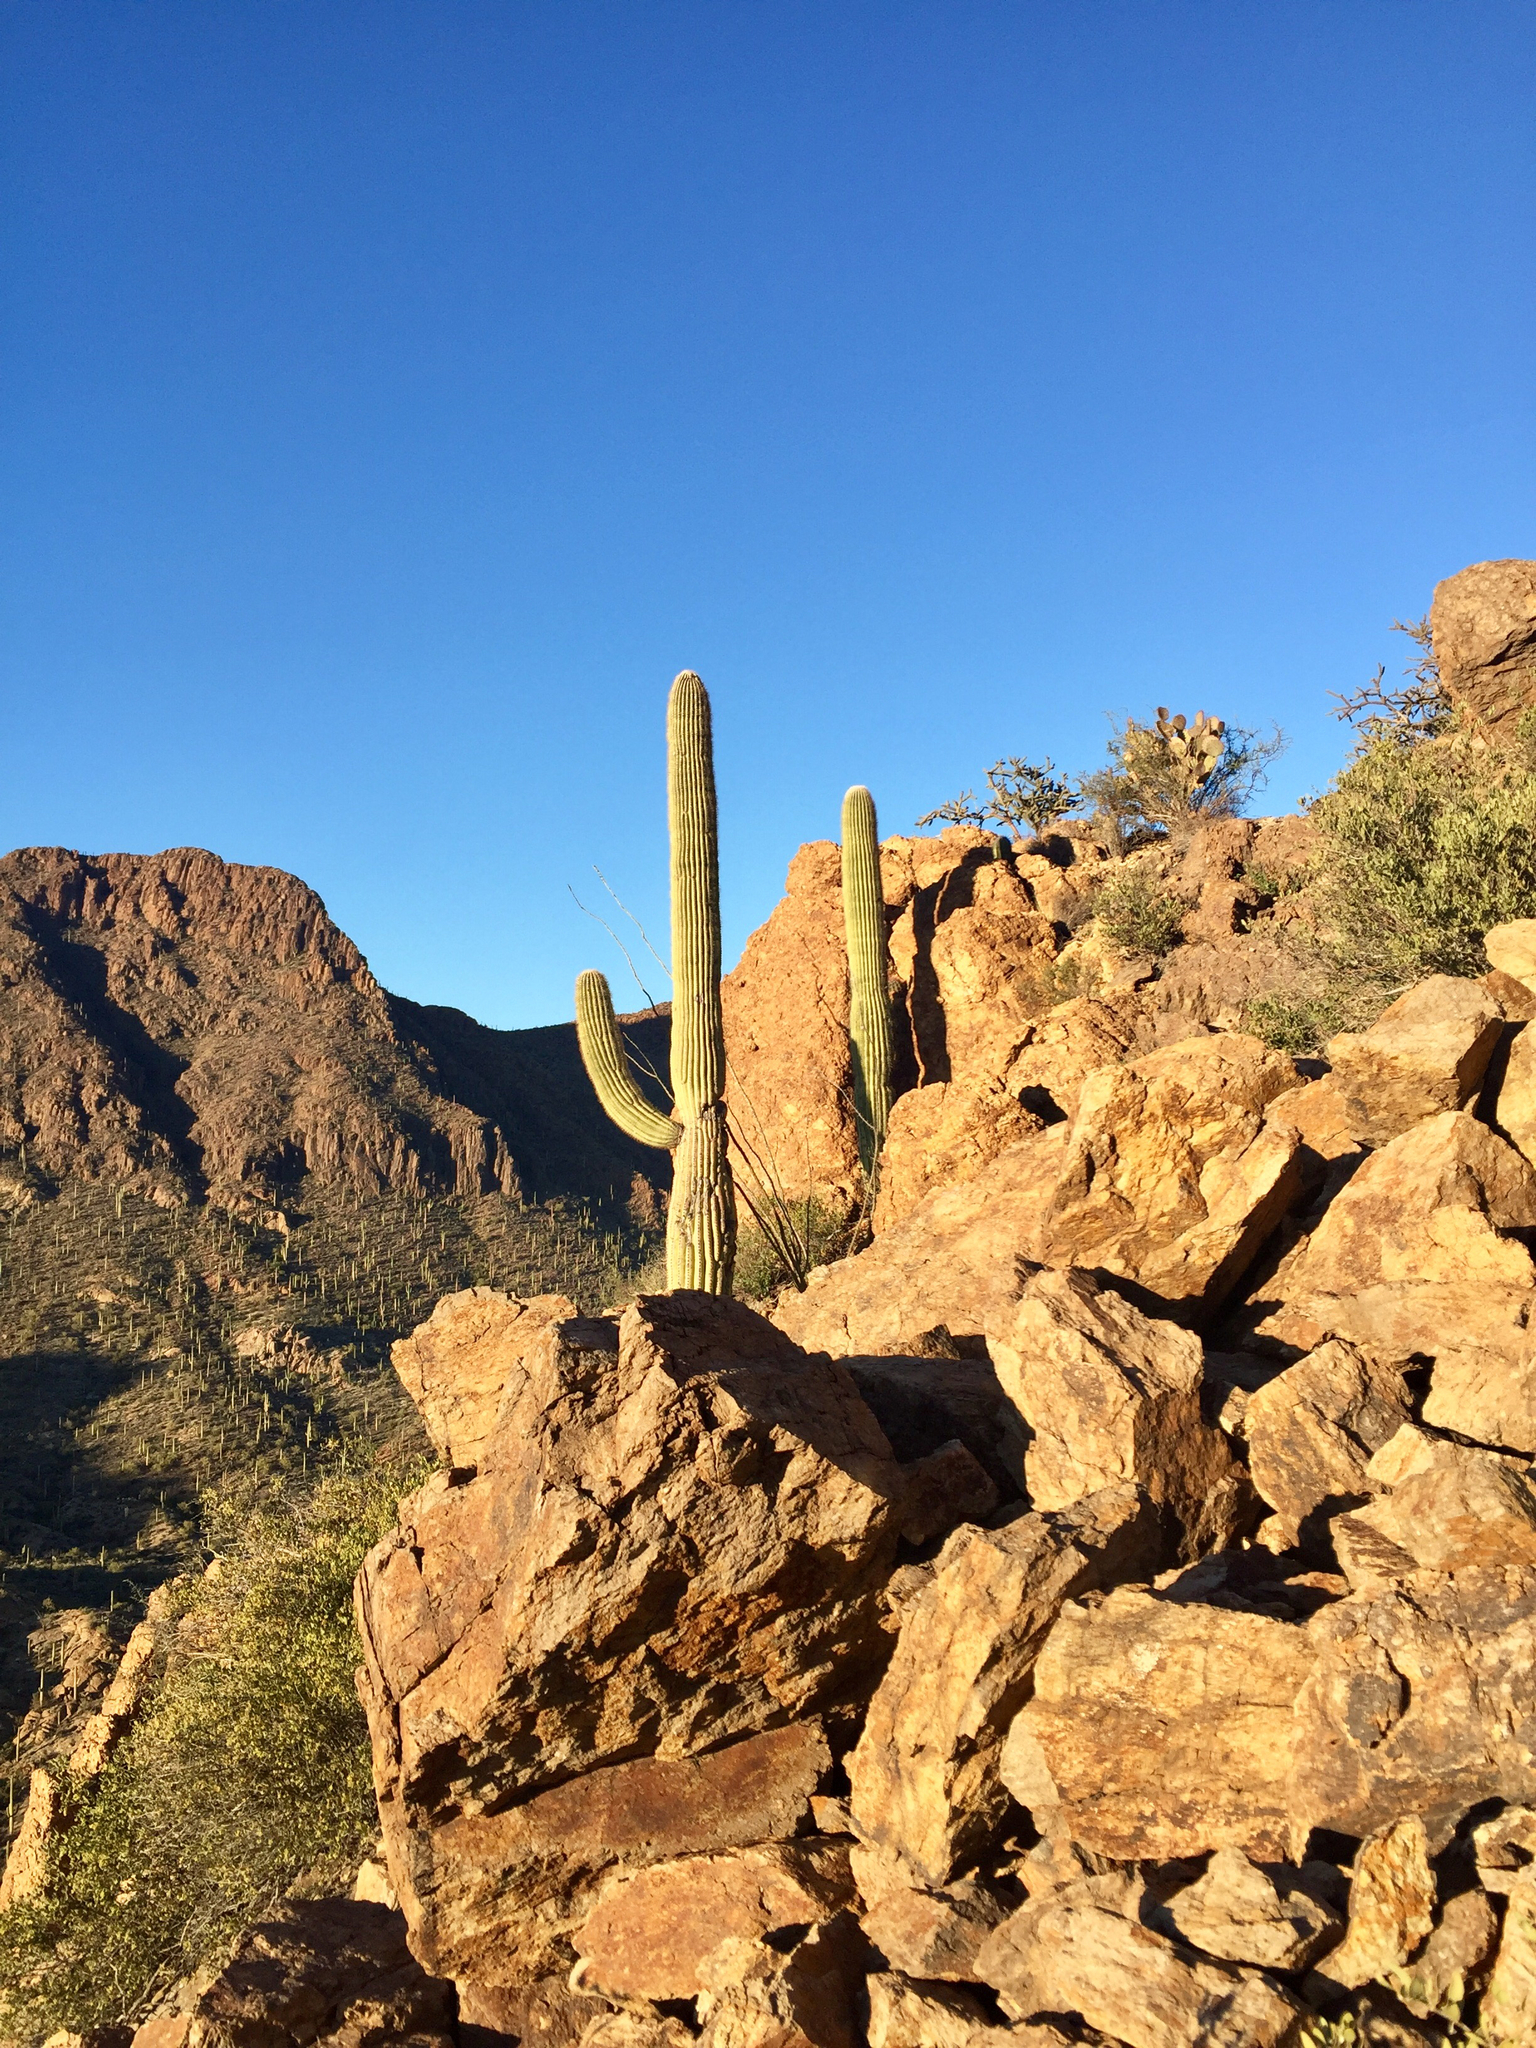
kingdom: Plantae
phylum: Tracheophyta
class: Magnoliopsida
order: Caryophyllales
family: Cactaceae
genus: Carnegiea
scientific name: Carnegiea gigantea
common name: Saguaro
